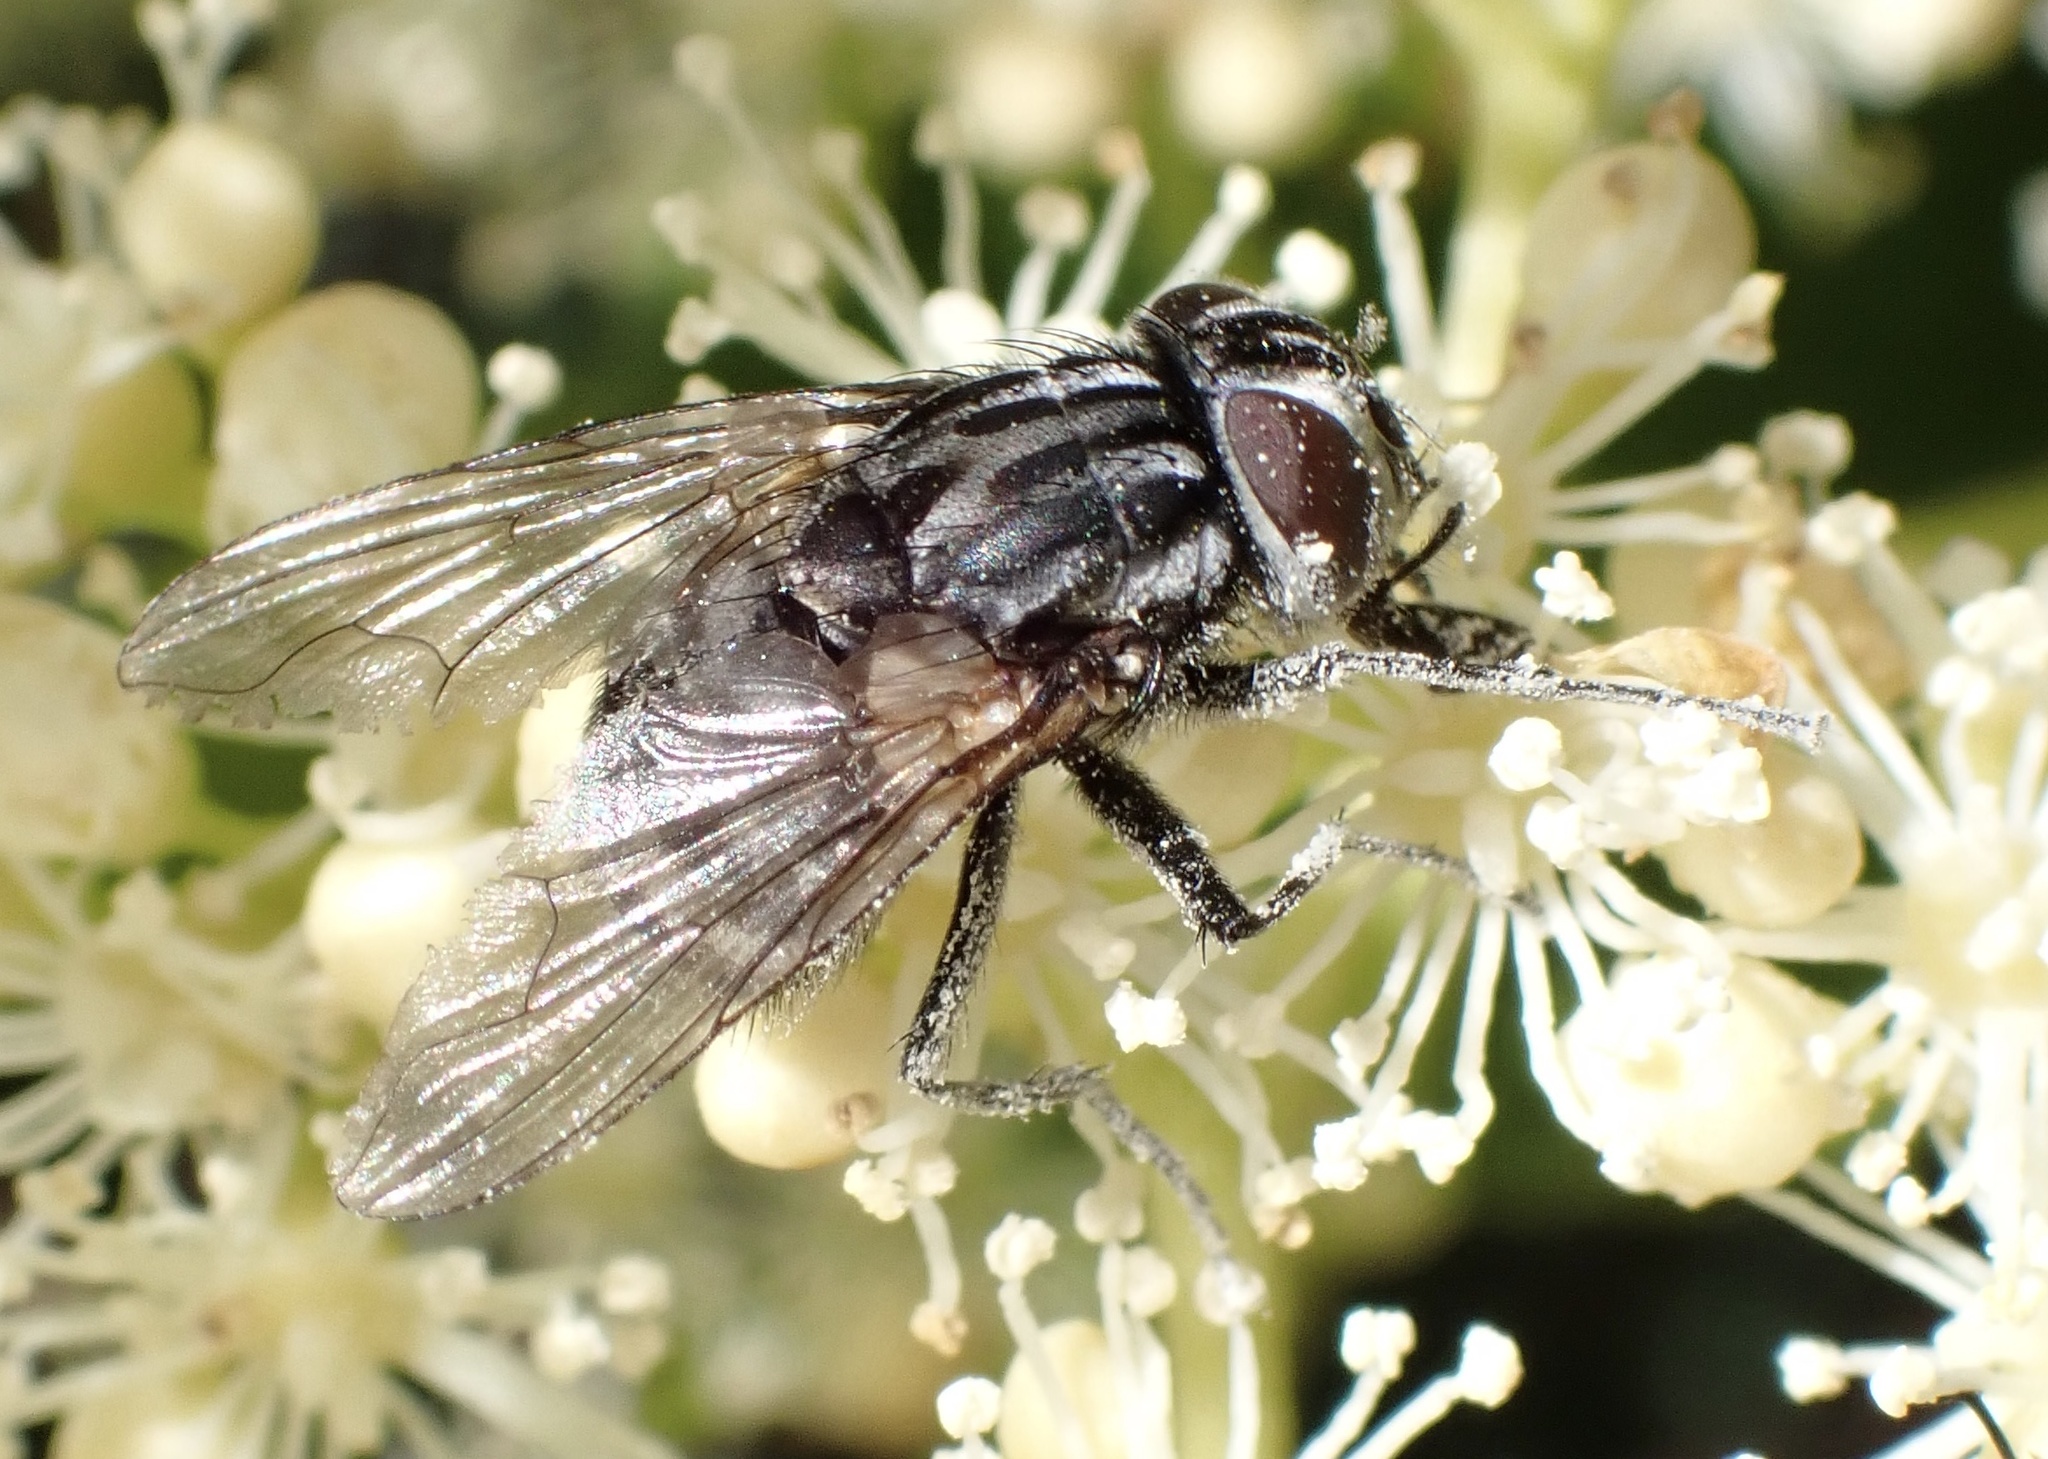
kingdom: Animalia
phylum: Arthropoda
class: Insecta
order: Diptera
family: Muscidae
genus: Graphomya
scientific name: Graphomya maculata
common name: Muscid fly
